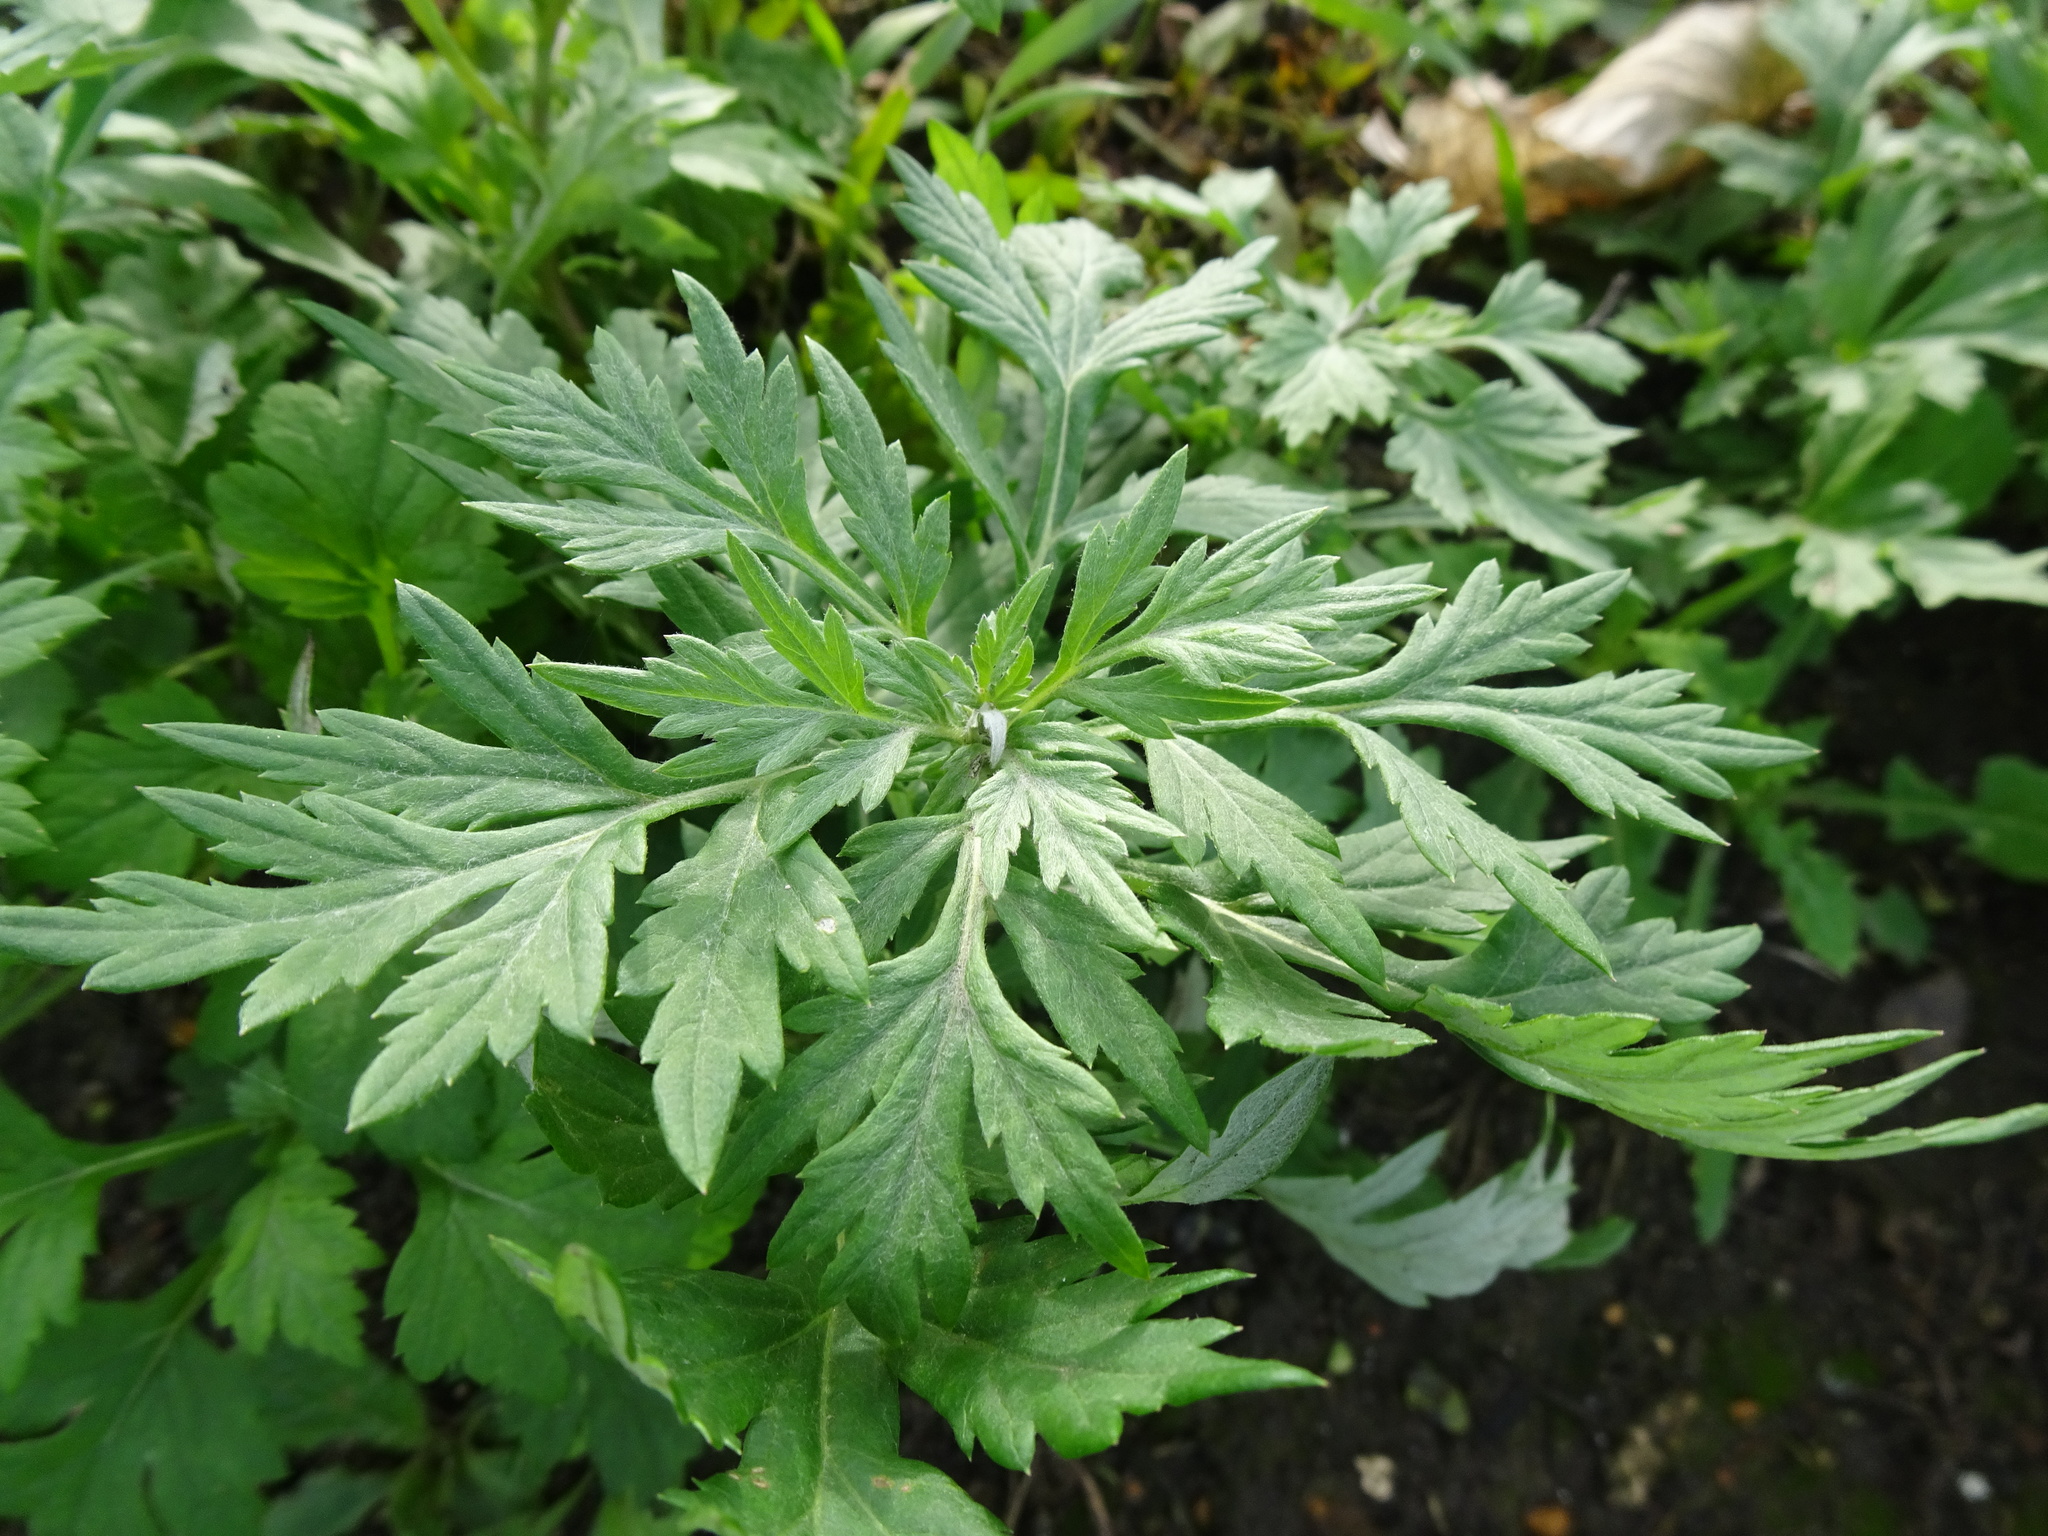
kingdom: Plantae
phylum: Tracheophyta
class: Magnoliopsida
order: Asterales
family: Asteraceae
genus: Artemisia
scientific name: Artemisia vulgaris
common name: Mugwort
